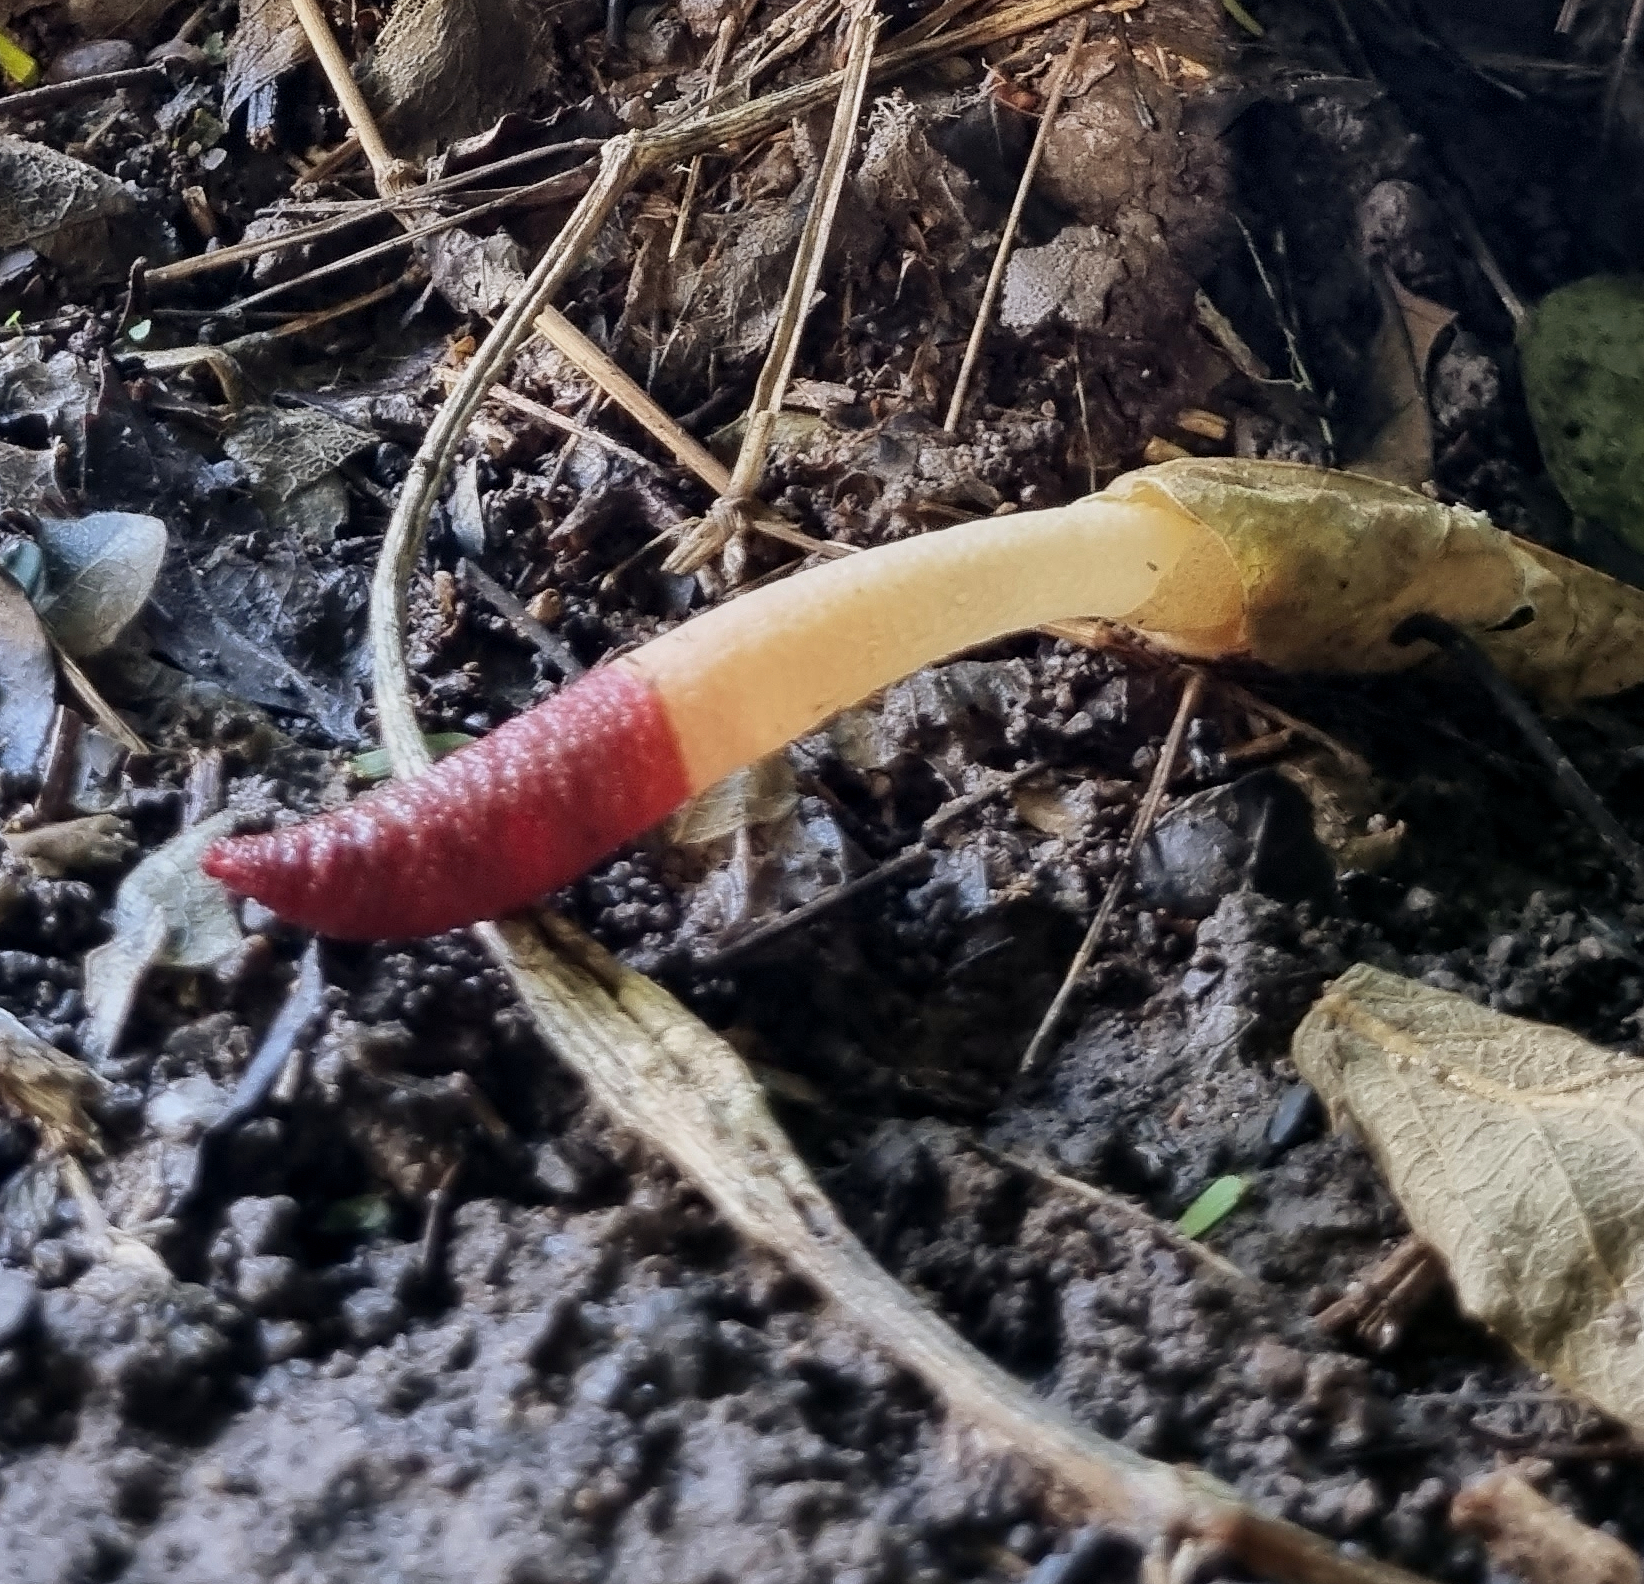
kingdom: Fungi
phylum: Basidiomycota
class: Agaricomycetes
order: Phallales
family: Phallaceae
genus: Mutinus
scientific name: Mutinus argentinus
